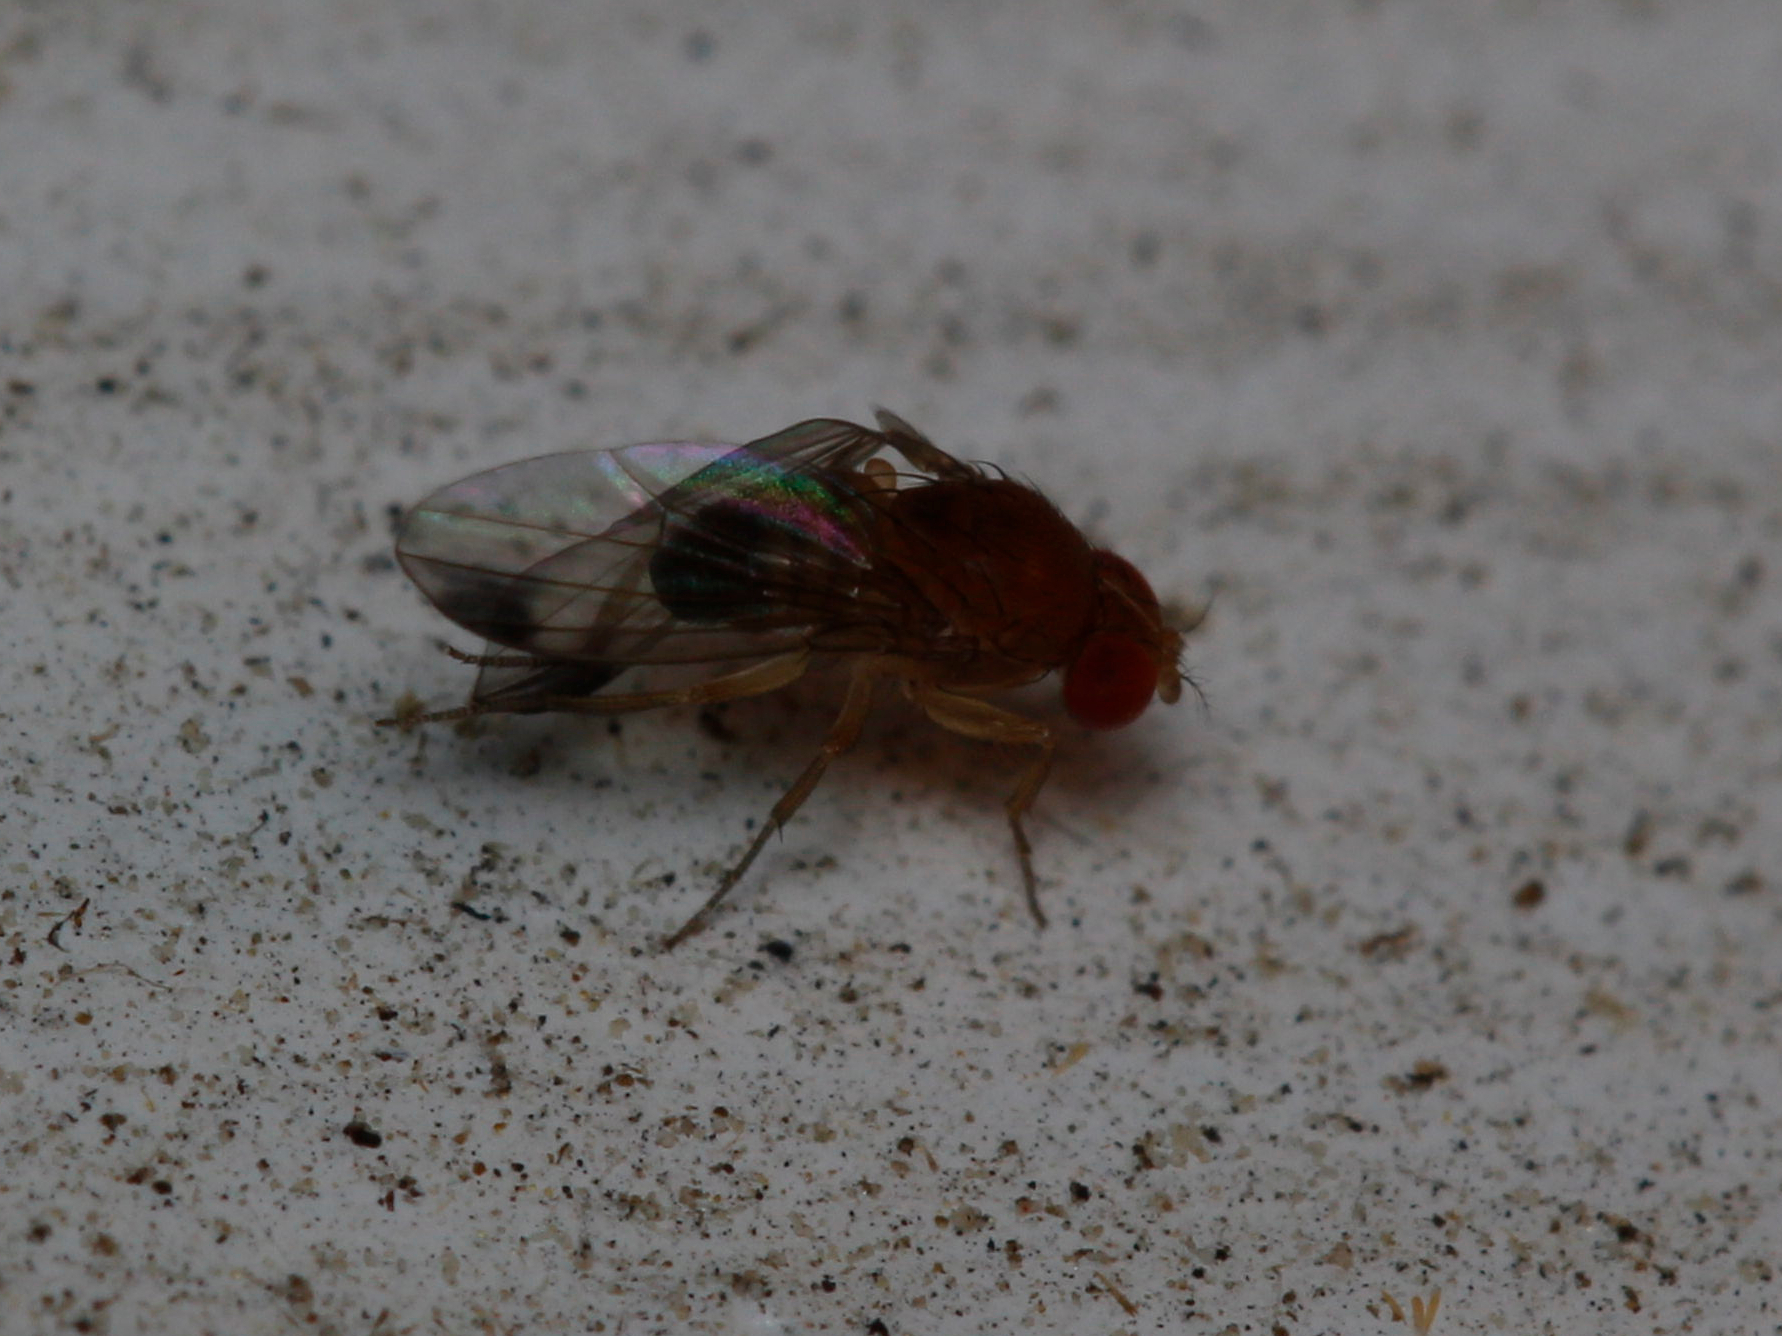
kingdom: Animalia
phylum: Arthropoda
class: Insecta
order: Diptera
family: Drosophilidae
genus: Drosophila
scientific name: Drosophila suzukii
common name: Spotted-wing drosophila
